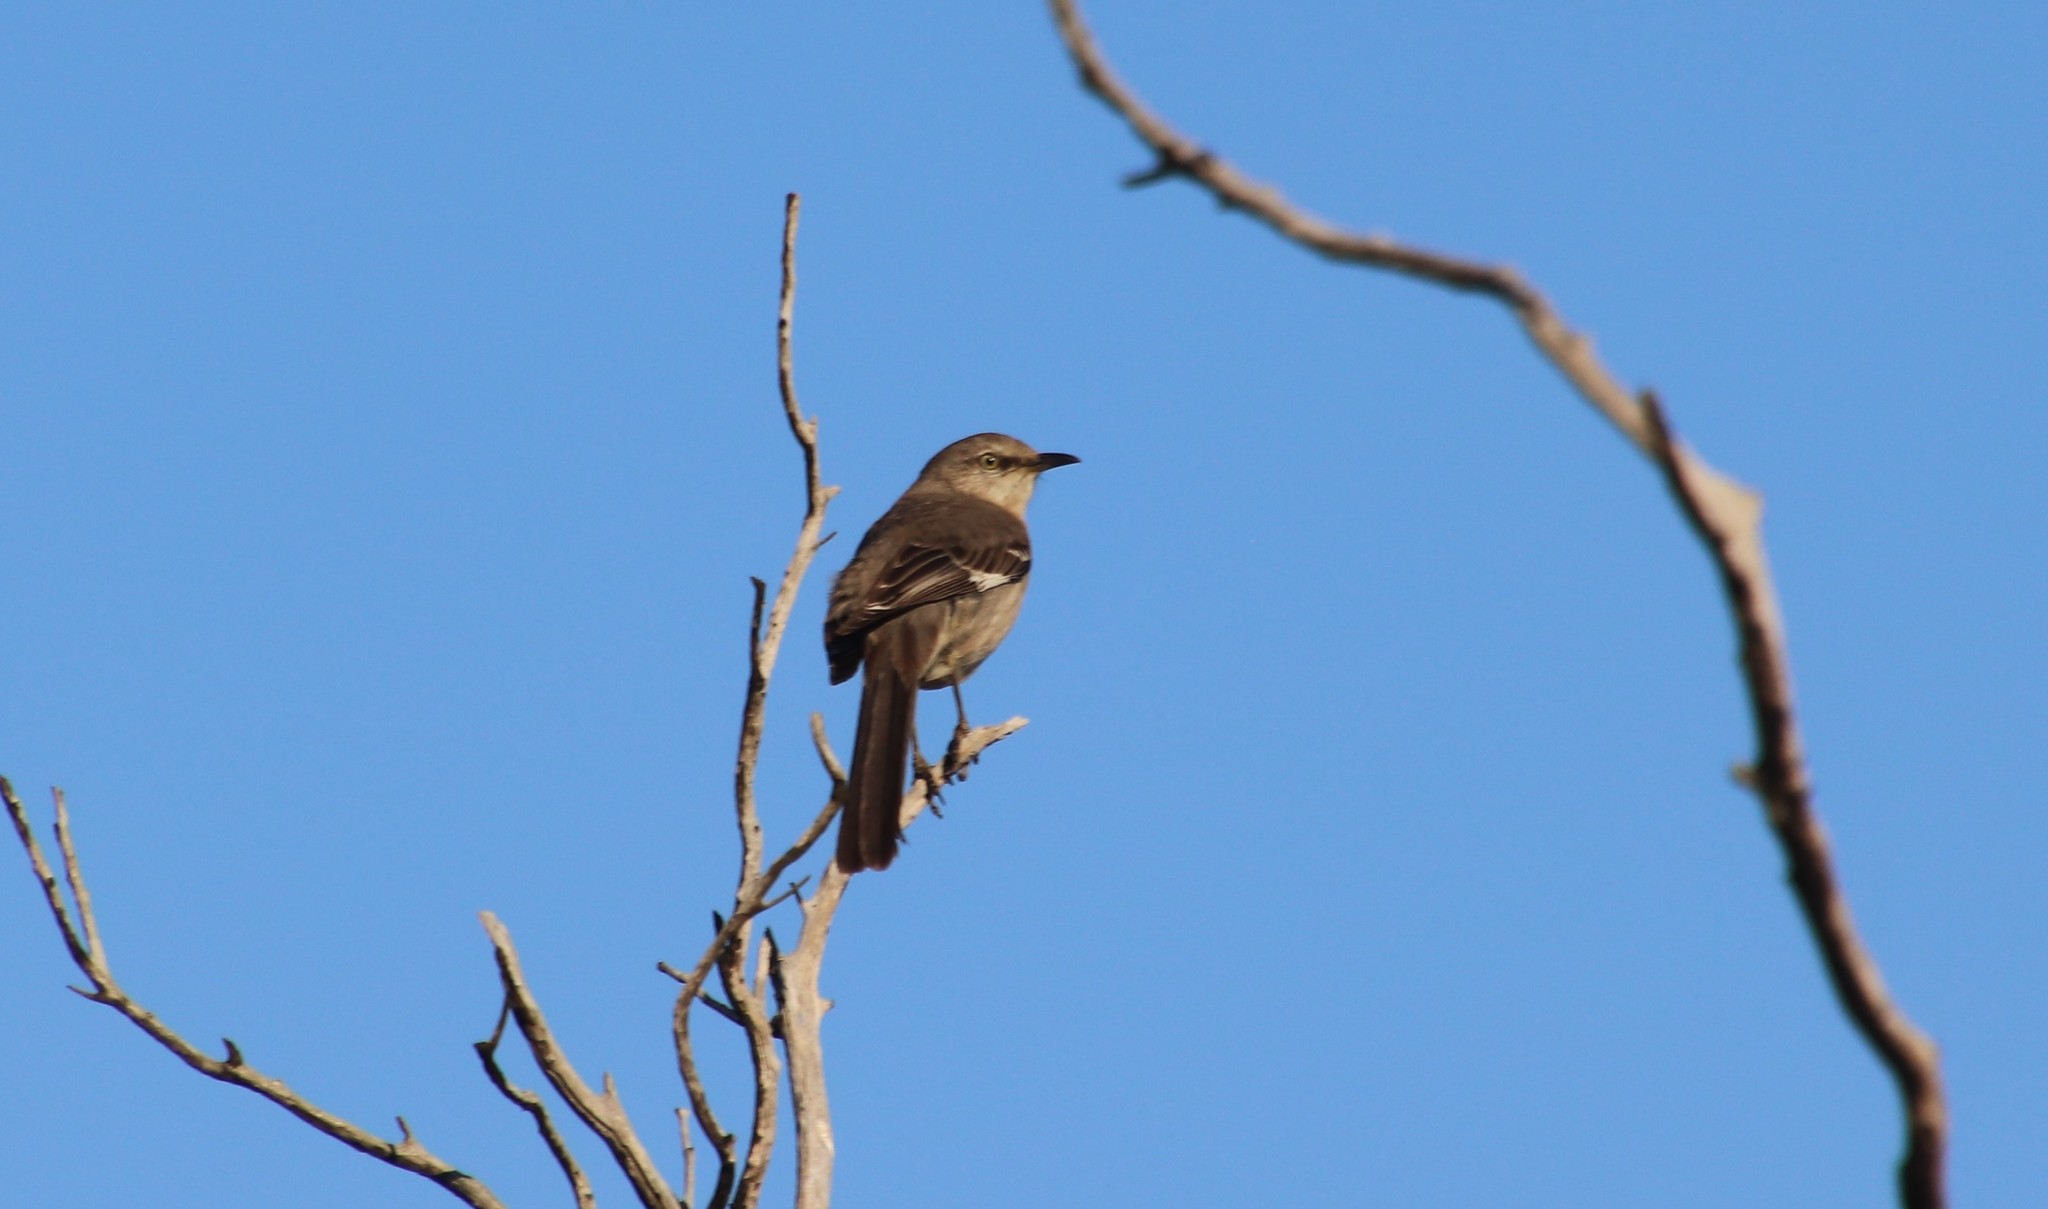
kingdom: Animalia
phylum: Chordata
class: Aves
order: Passeriformes
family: Mimidae
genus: Mimus
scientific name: Mimus polyglottos
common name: Northern mockingbird
